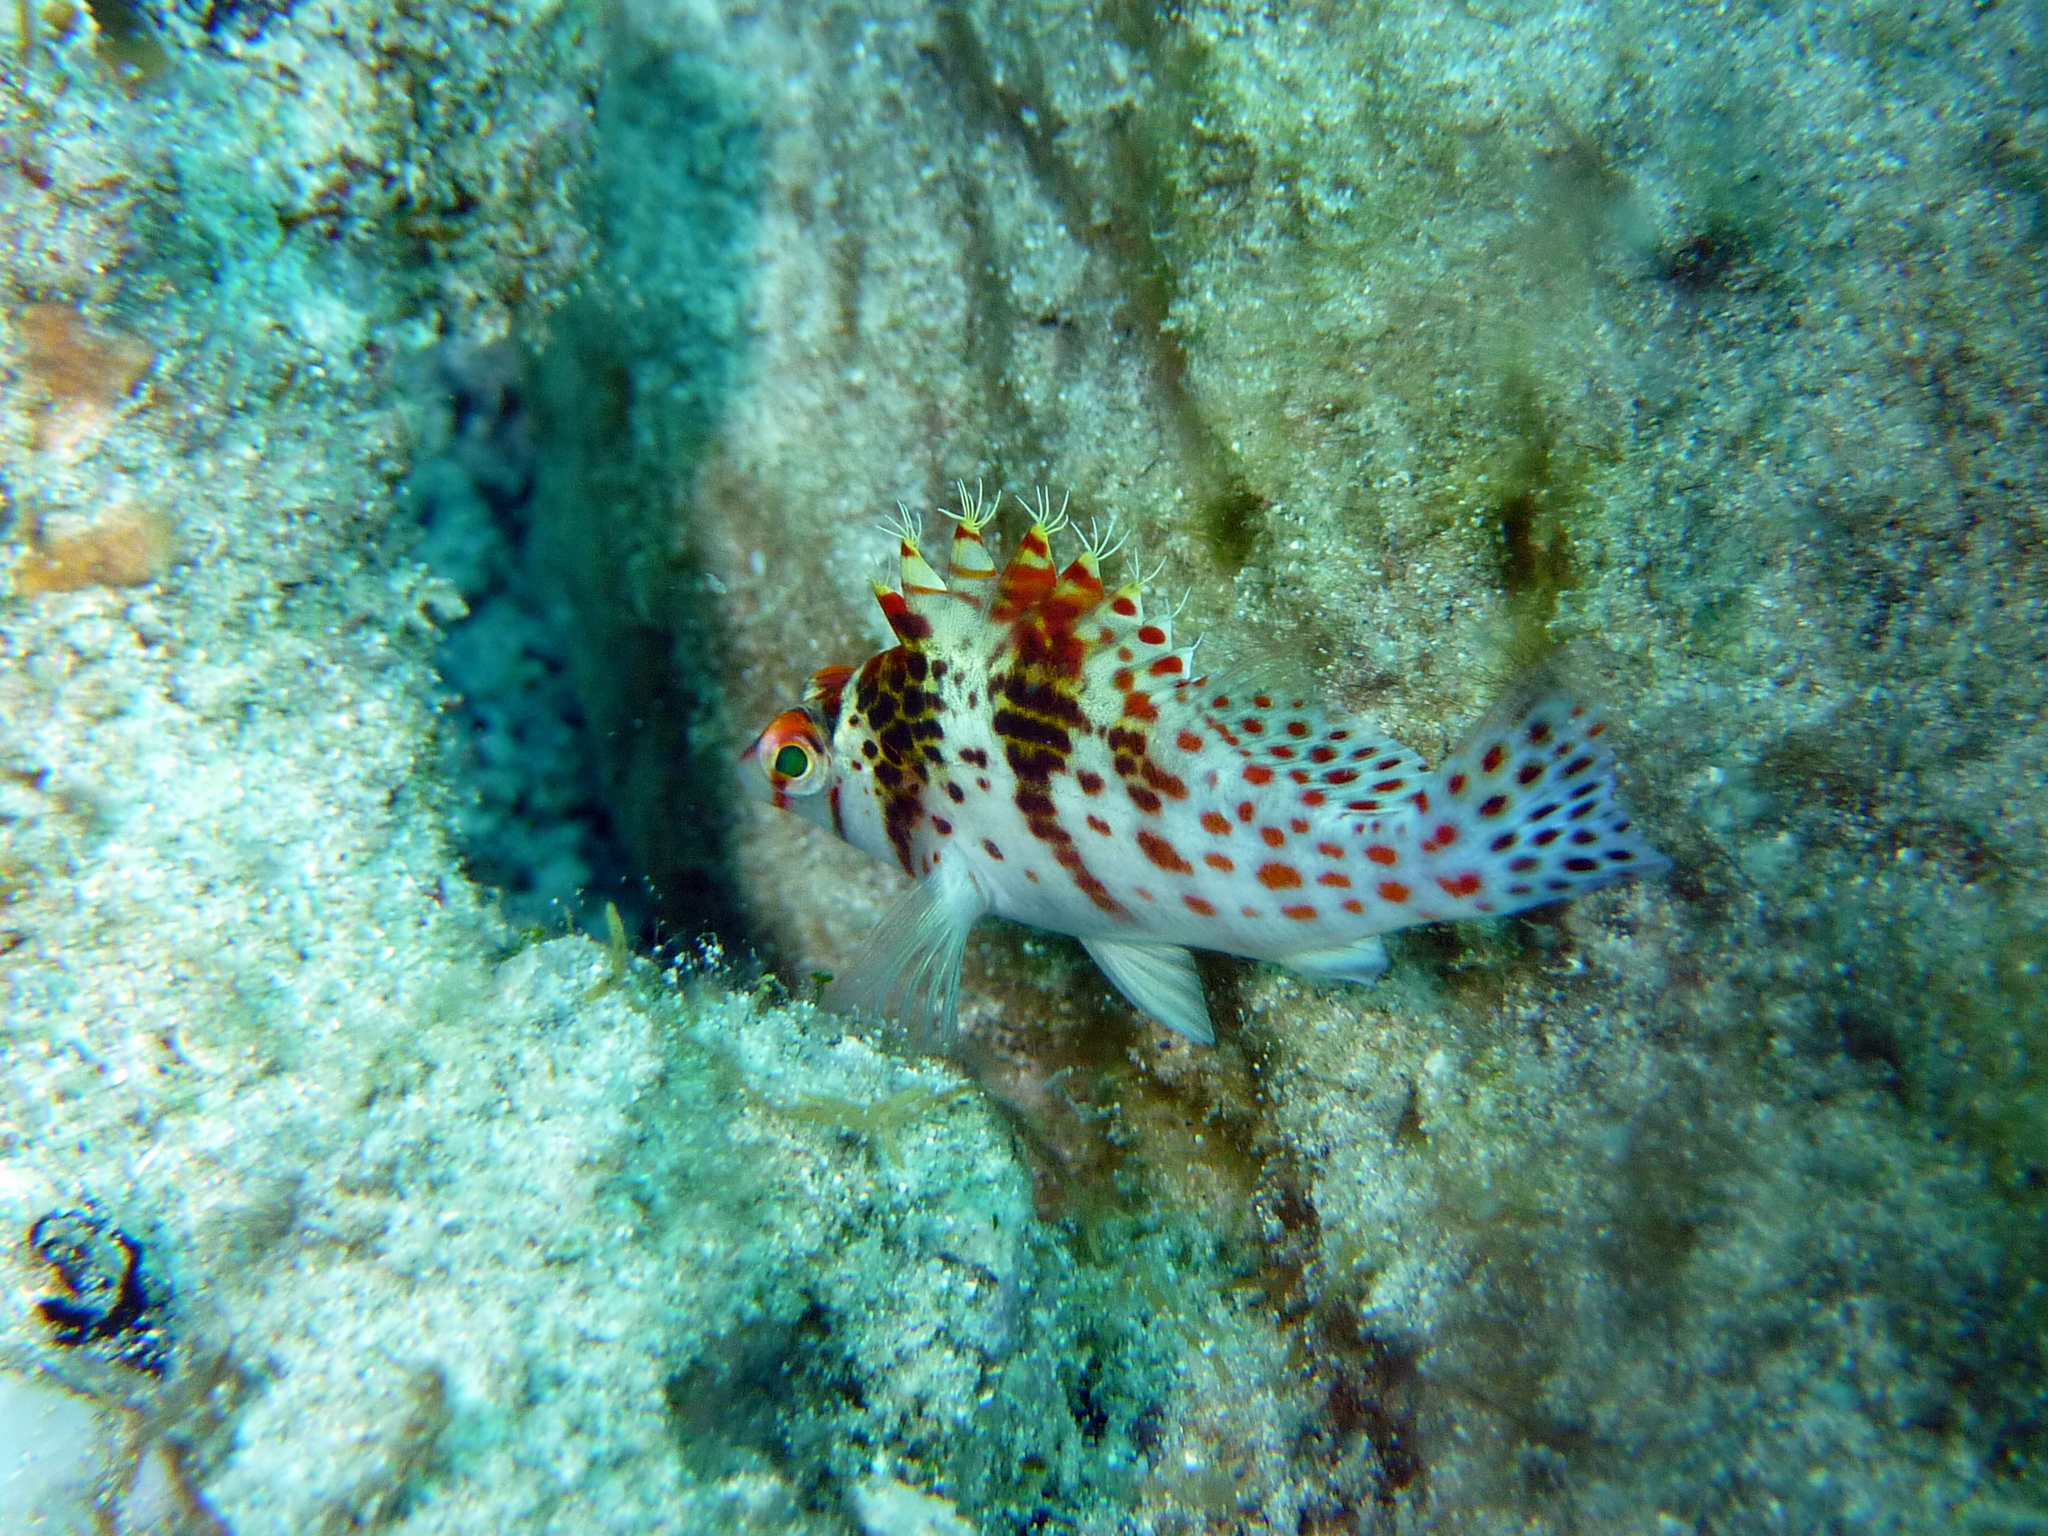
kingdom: Animalia
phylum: Chordata
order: Perciformes
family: Cirrhitidae
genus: Cirrhitichthys
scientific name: Cirrhitichthys falco
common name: Coral hawkfish
